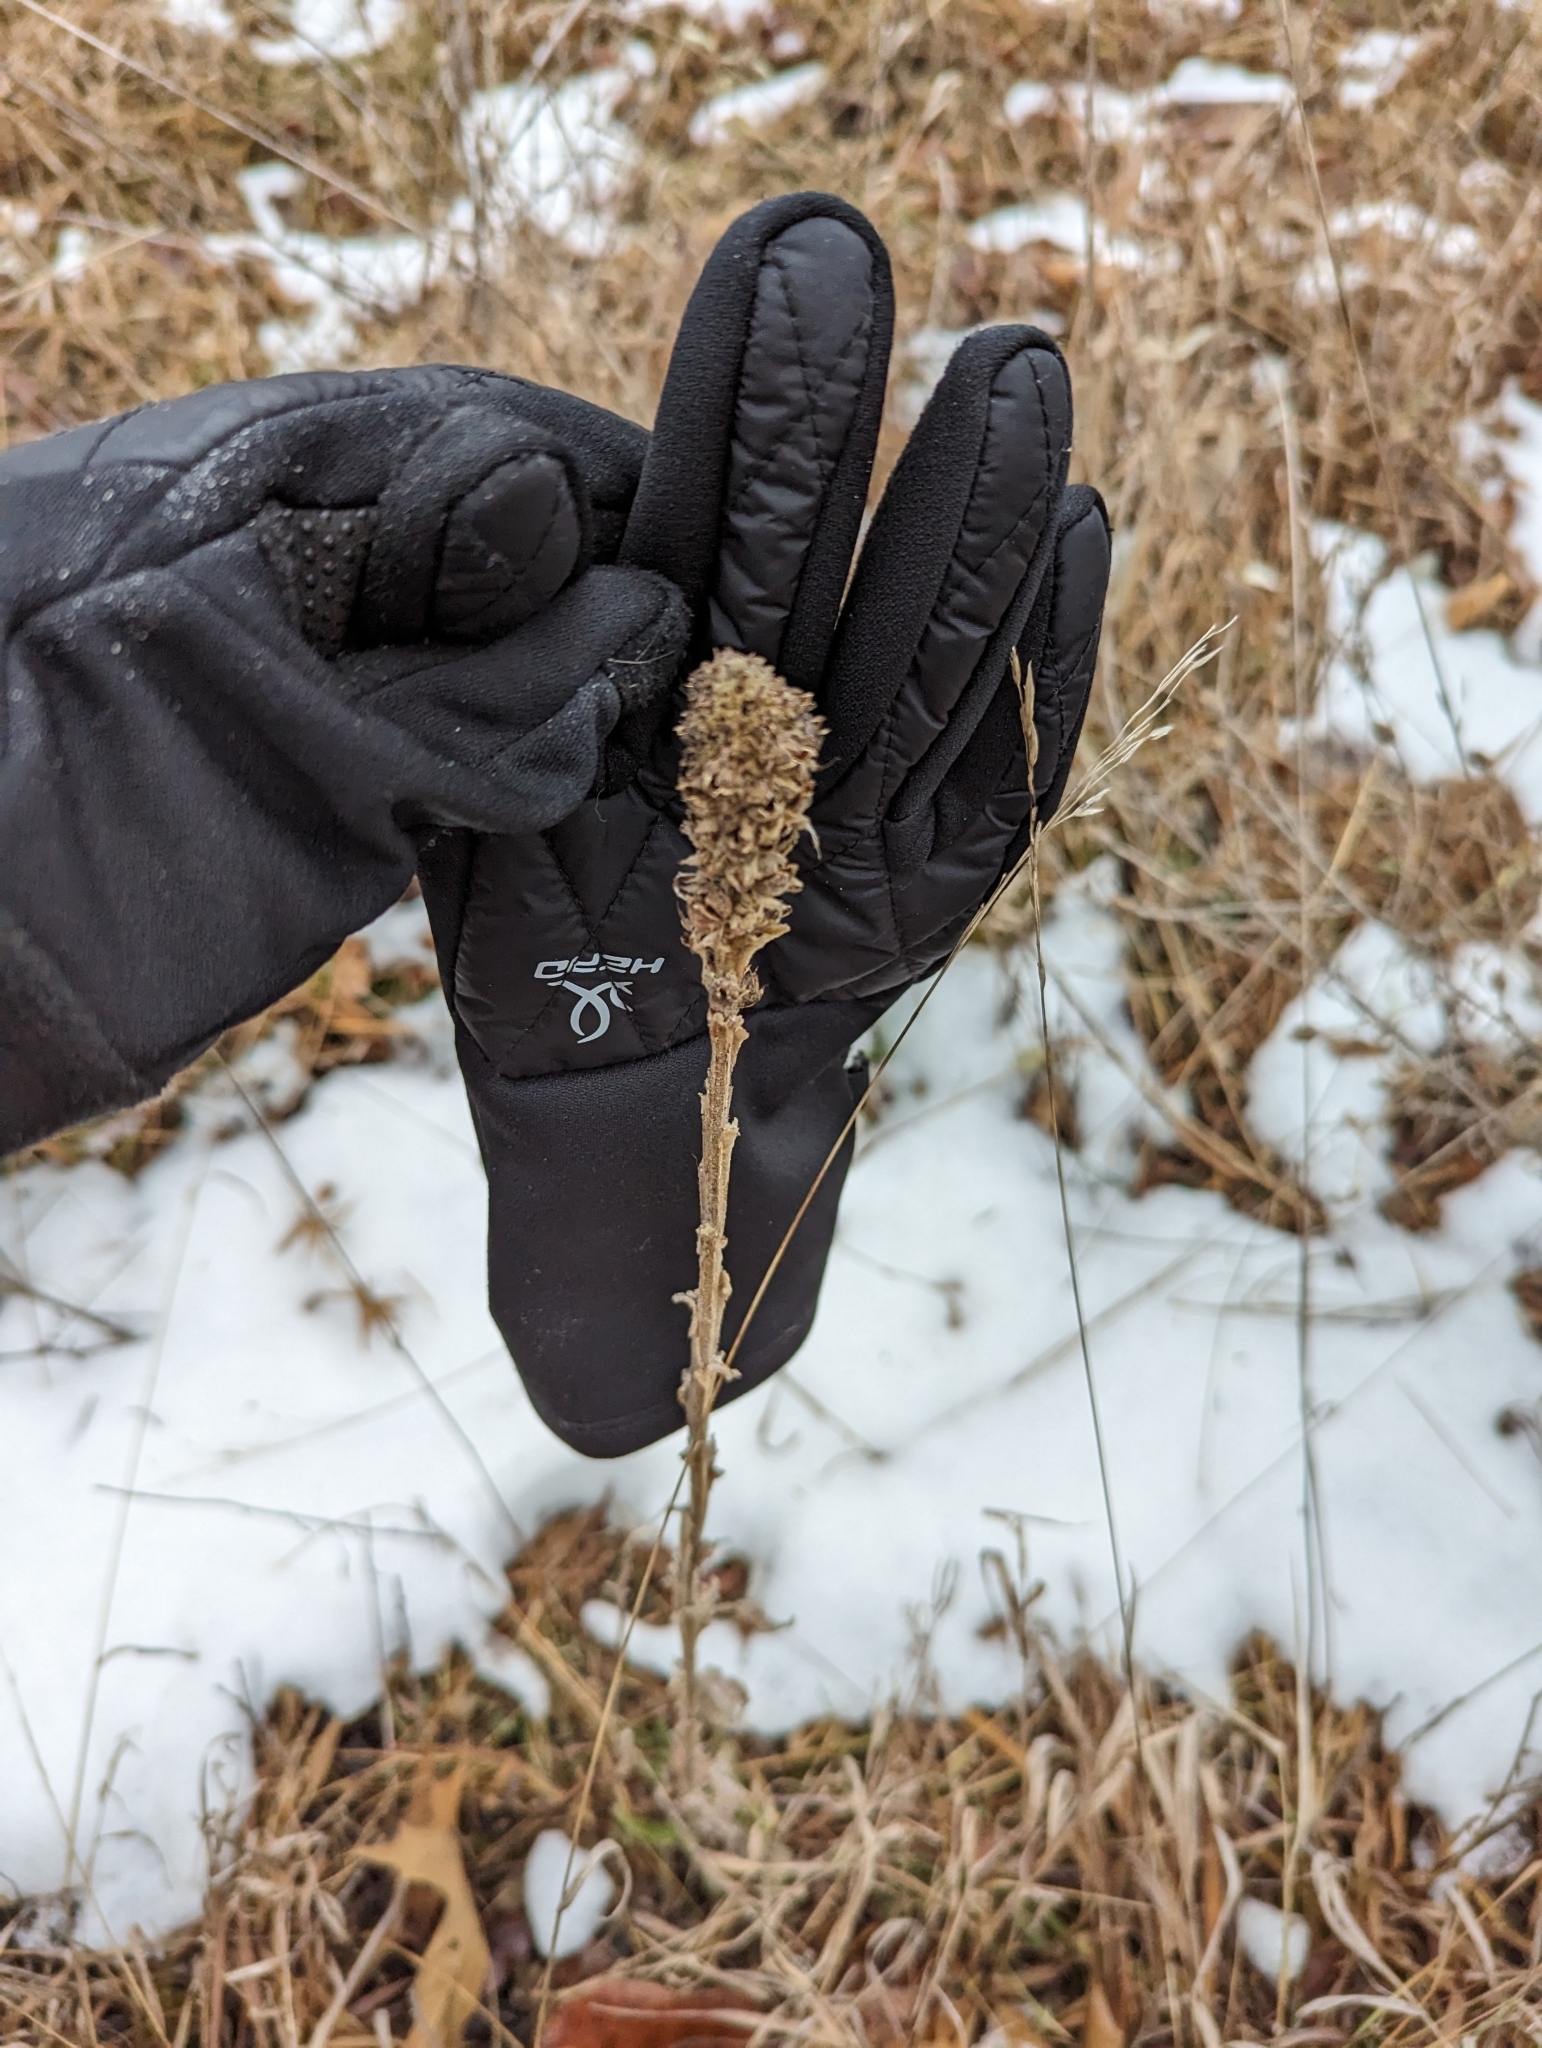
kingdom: Plantae
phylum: Tracheophyta
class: Magnoliopsida
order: Lamiales
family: Scrophulariaceae
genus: Verbascum
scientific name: Verbascum thapsus
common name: Common mullein
